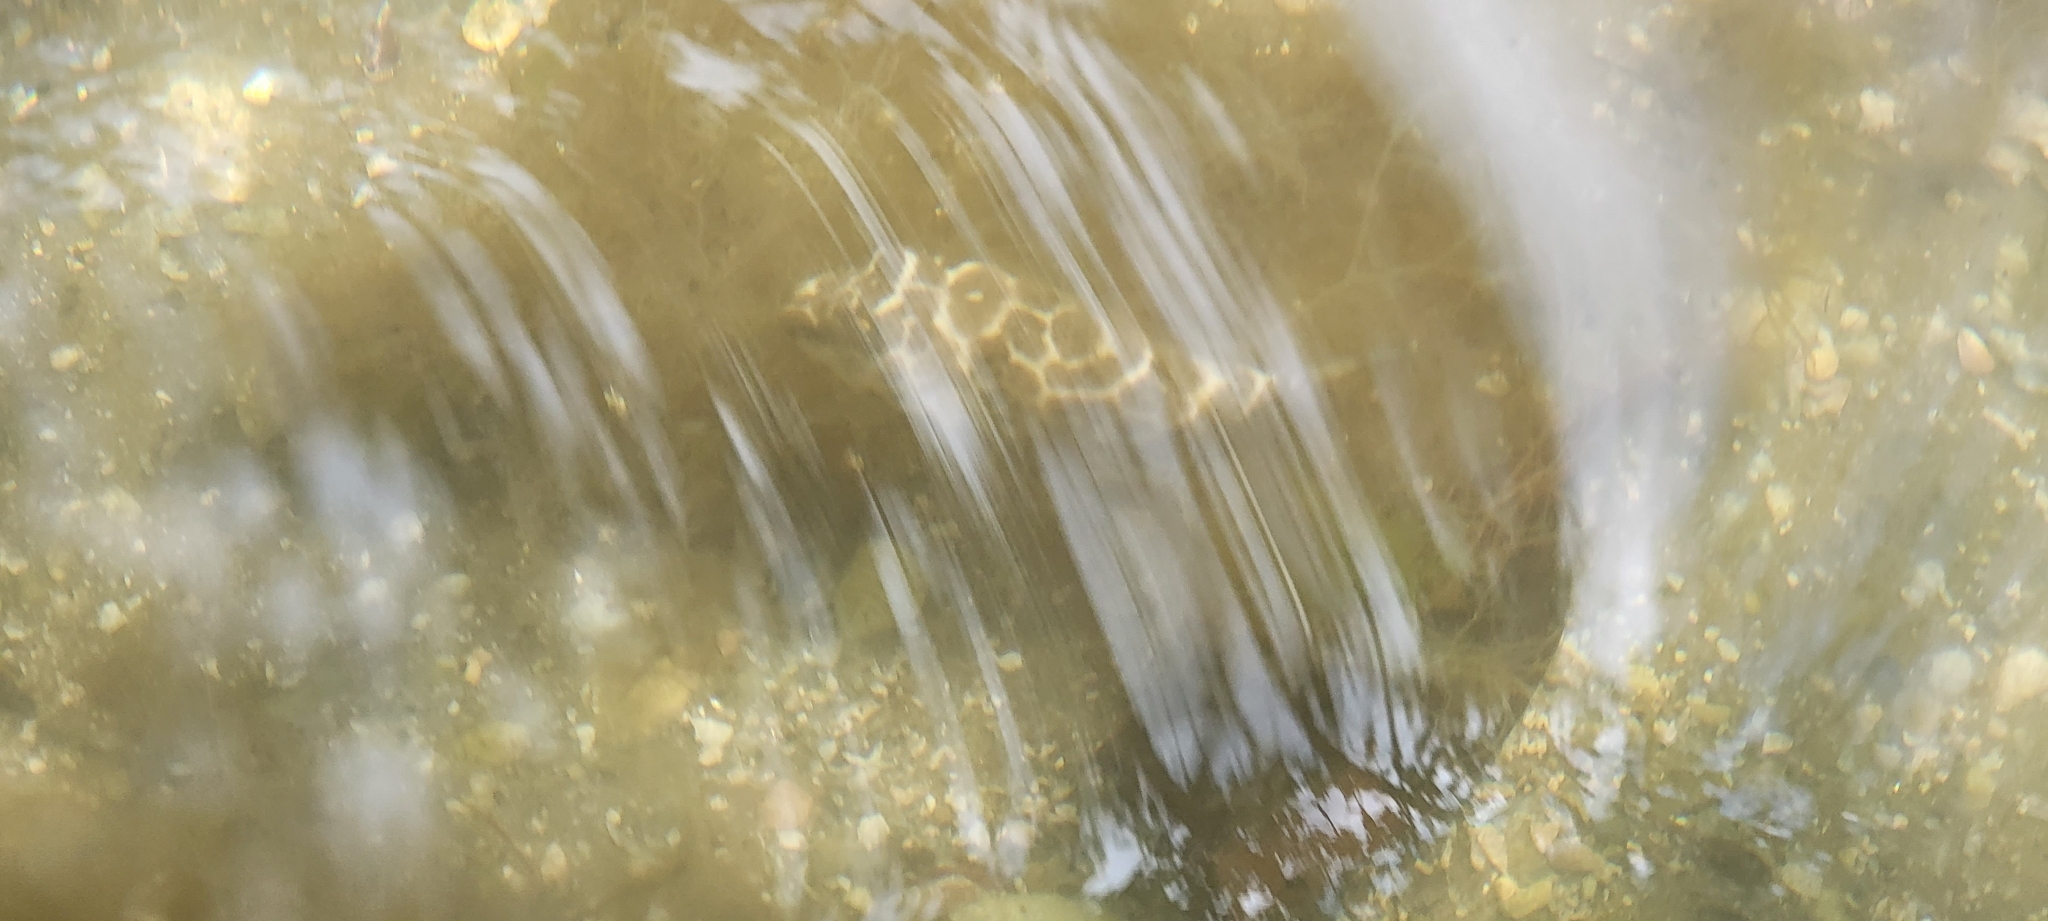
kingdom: Animalia
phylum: Chordata
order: Tetraodontiformes
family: Tetraodontidae
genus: Sphoeroides
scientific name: Sphoeroides testudineus
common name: Checkered puffer
